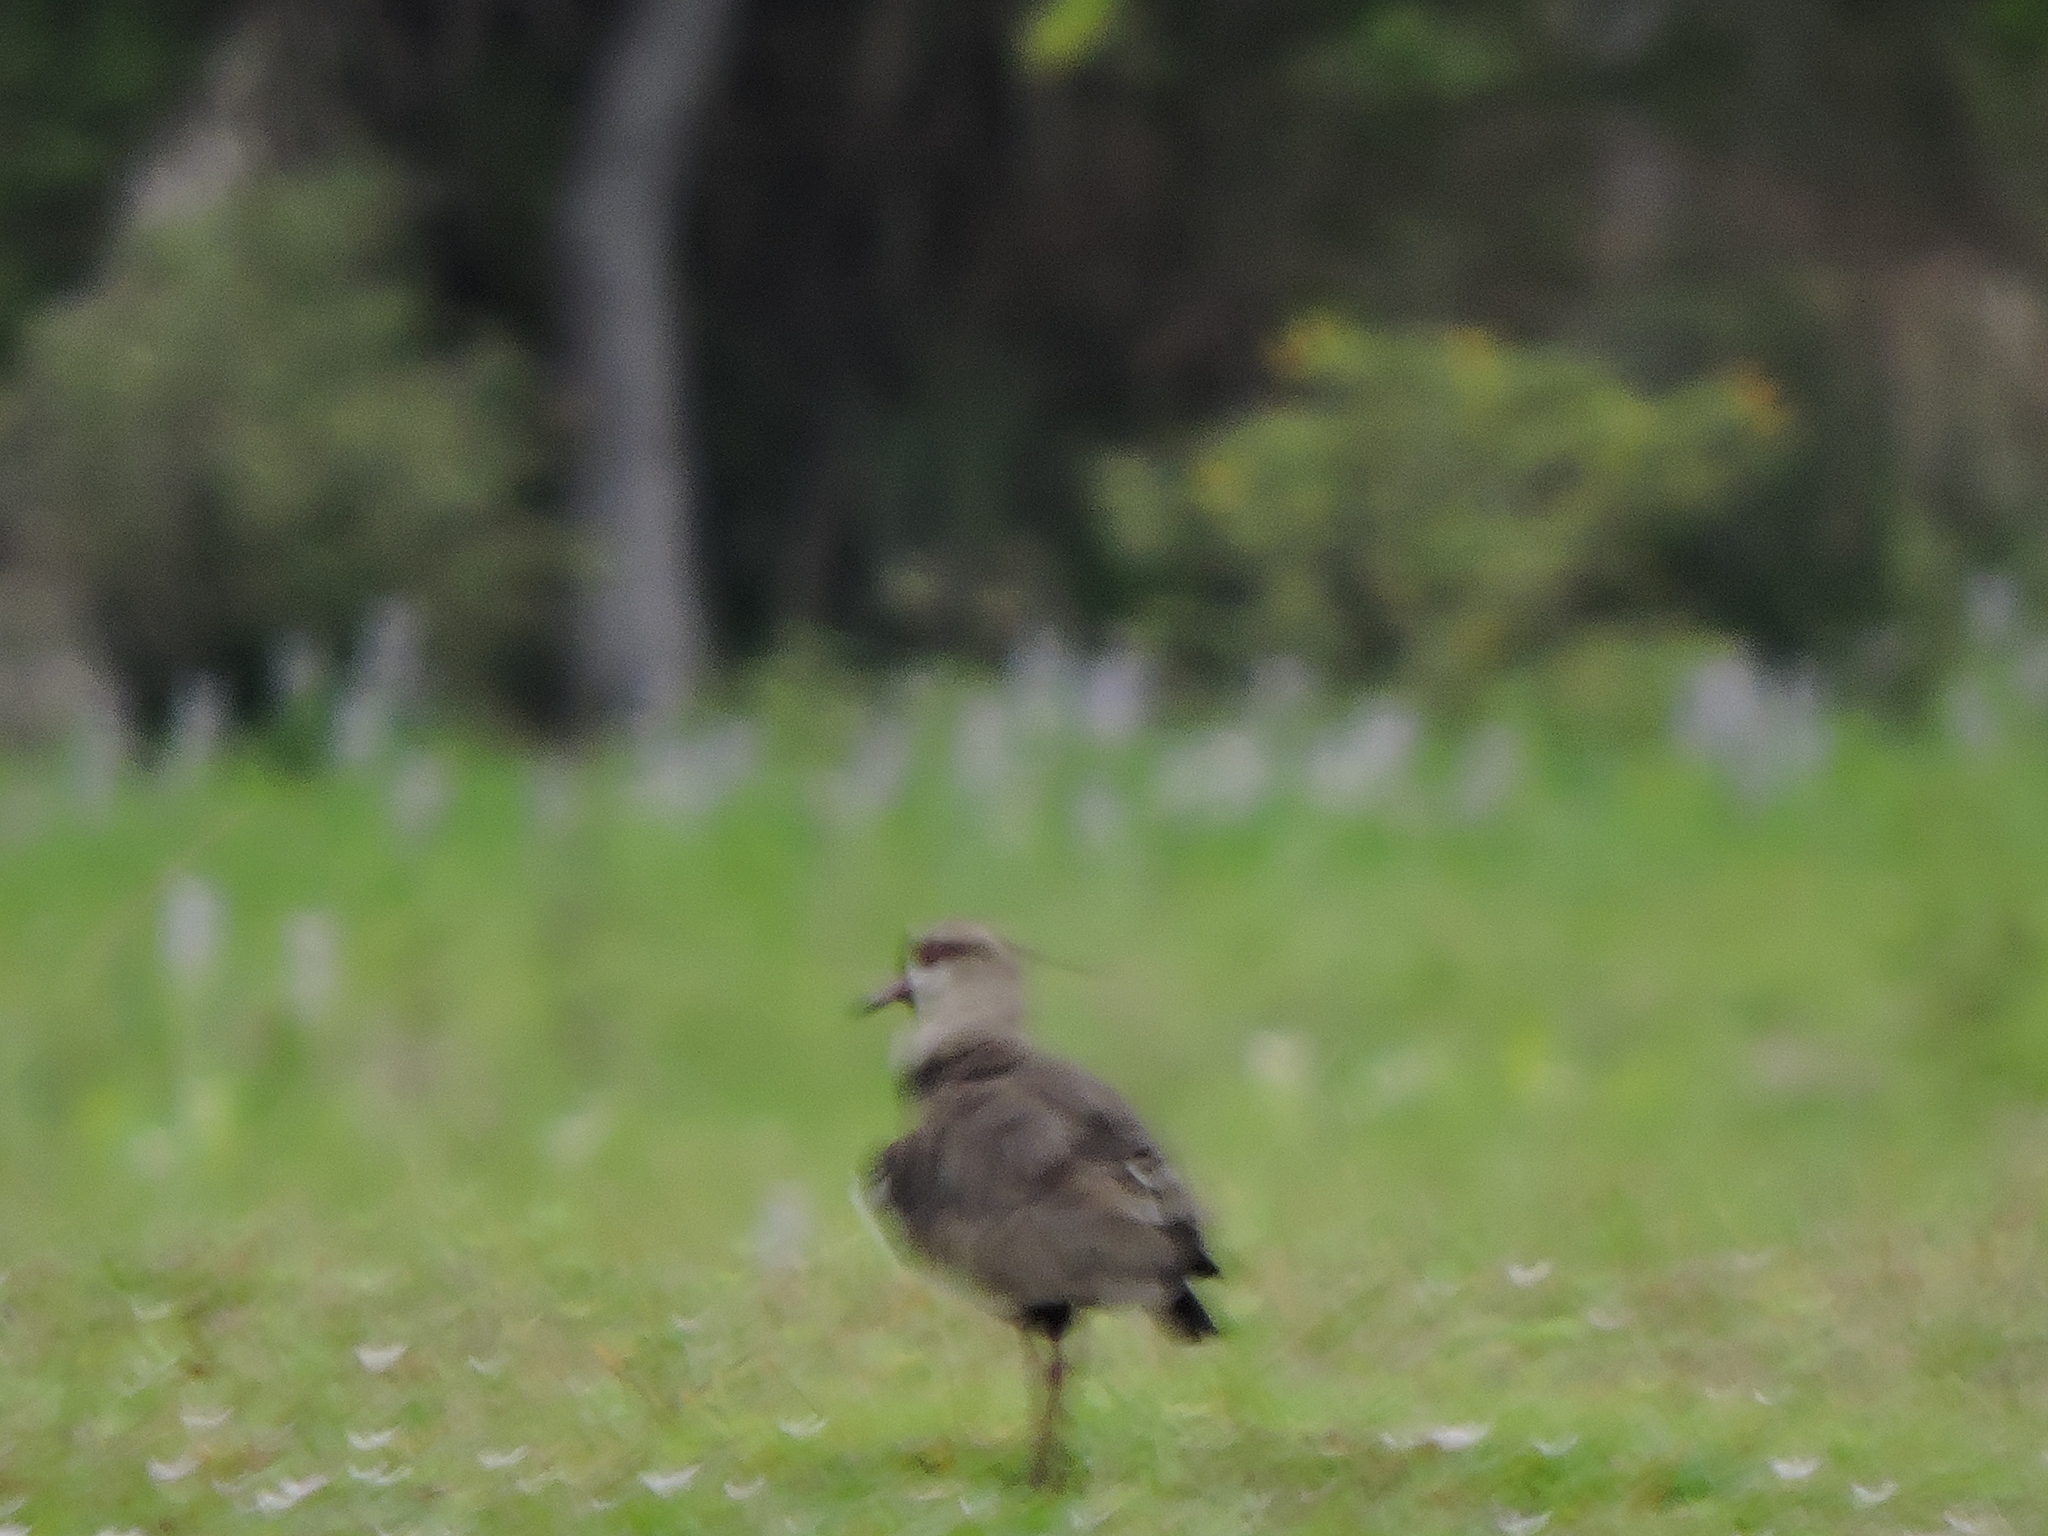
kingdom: Animalia
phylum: Chordata
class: Aves
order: Charadriiformes
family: Charadriidae
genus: Vanellus
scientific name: Vanellus chilensis
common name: Southern lapwing
